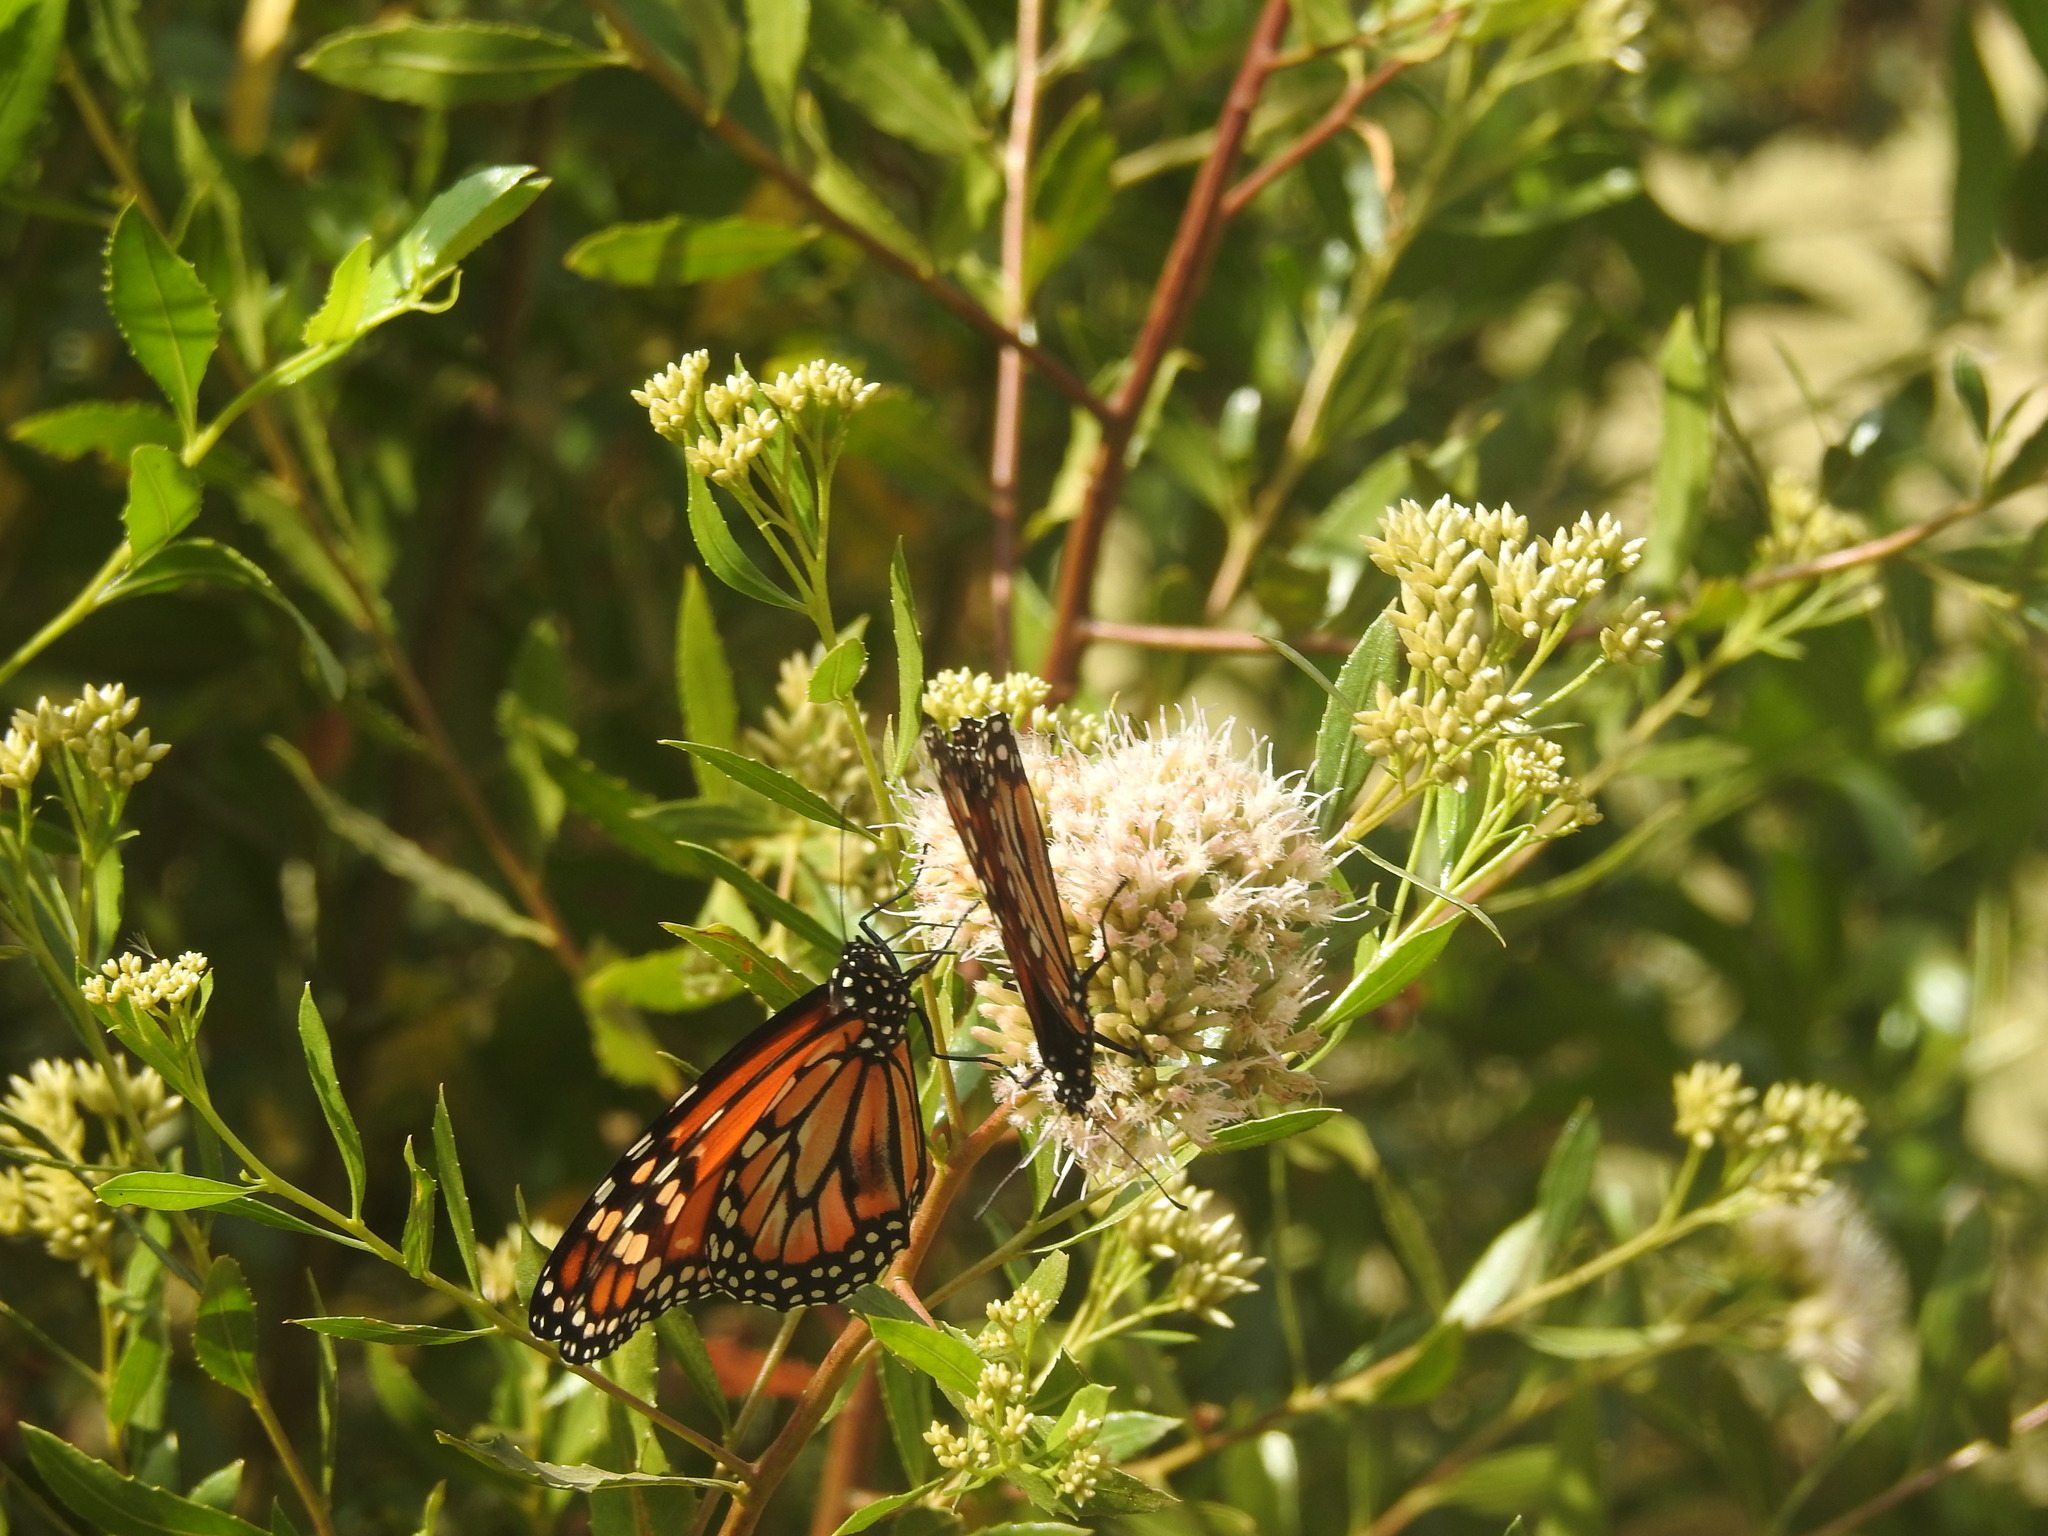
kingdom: Animalia
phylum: Arthropoda
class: Insecta
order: Lepidoptera
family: Nymphalidae
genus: Danaus
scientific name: Danaus erippus
